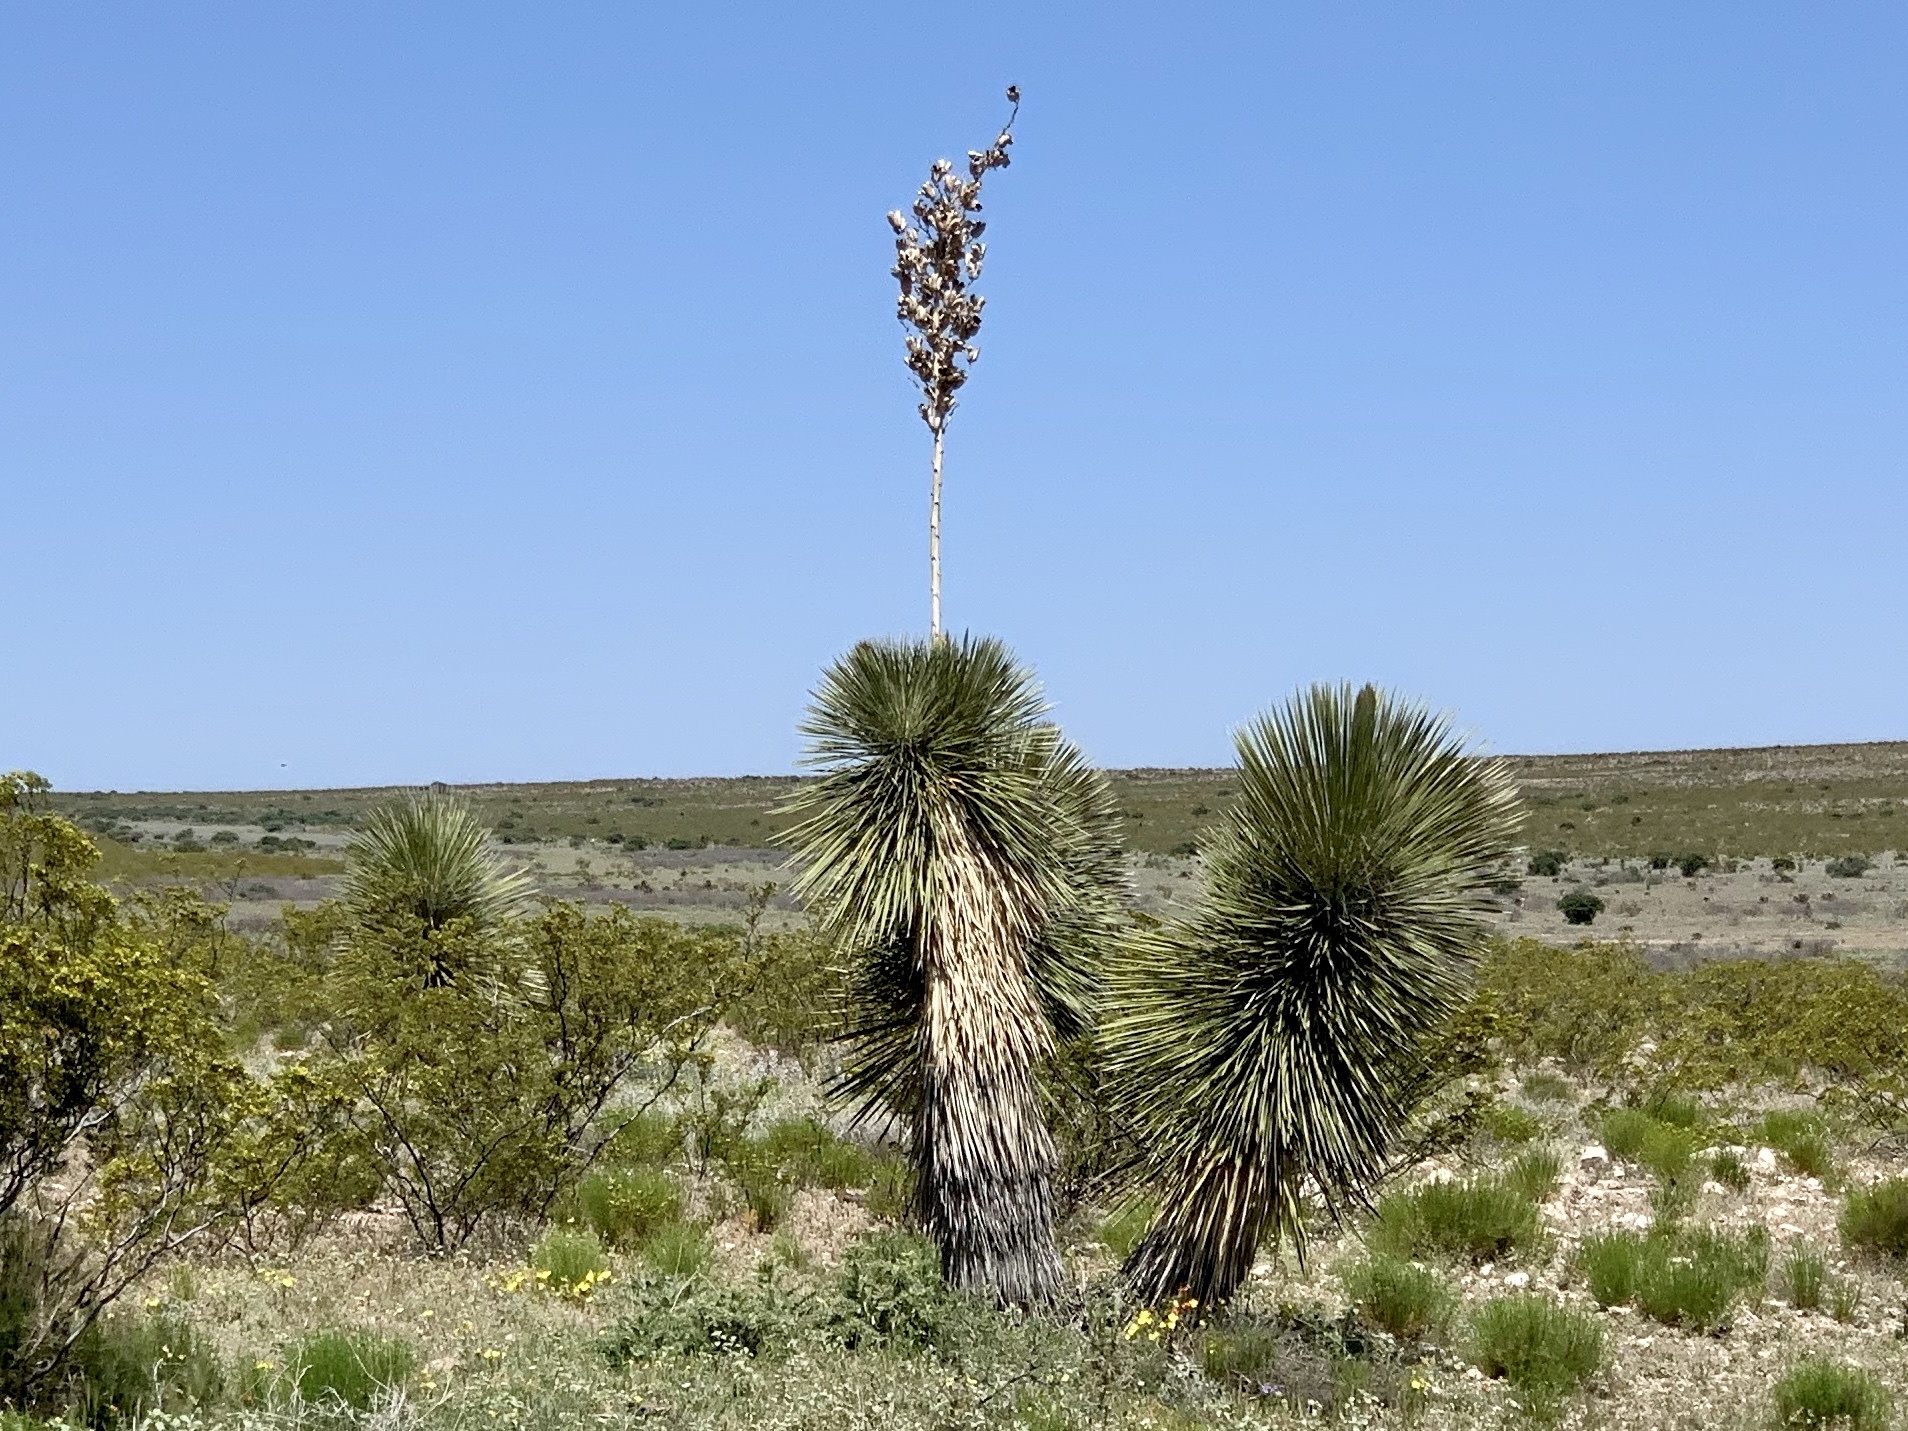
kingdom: Plantae
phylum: Tracheophyta
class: Liliopsida
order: Asparagales
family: Asparagaceae
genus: Yucca
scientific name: Yucca elata
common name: Palmella
